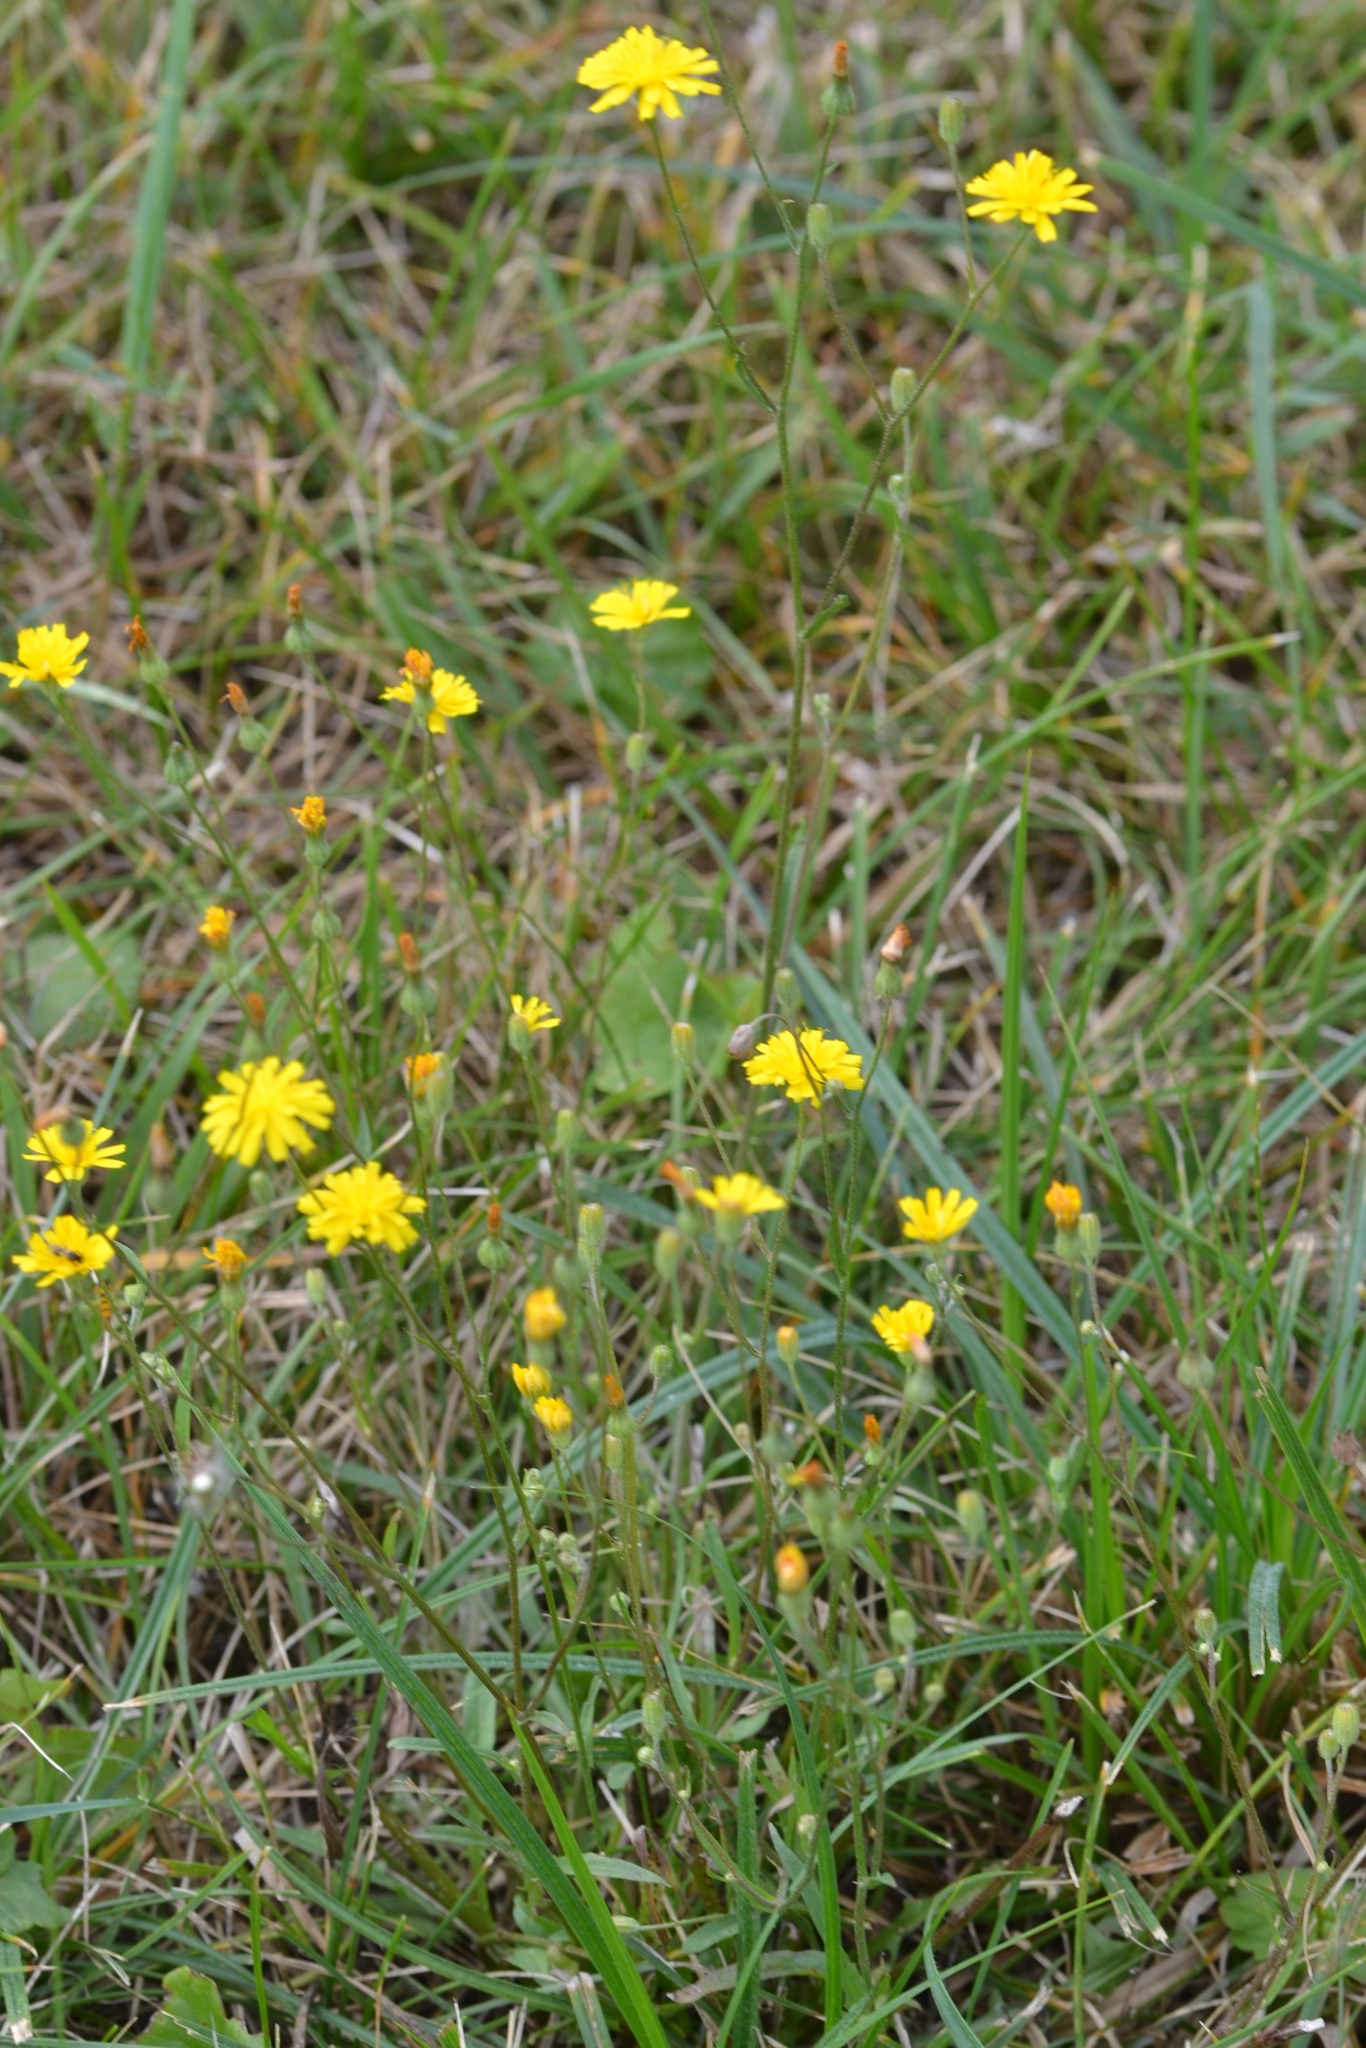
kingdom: Plantae
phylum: Tracheophyta
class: Magnoliopsida
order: Asterales
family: Asteraceae
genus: Crepis
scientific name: Crepis capillaris
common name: Smooth hawksbeard
